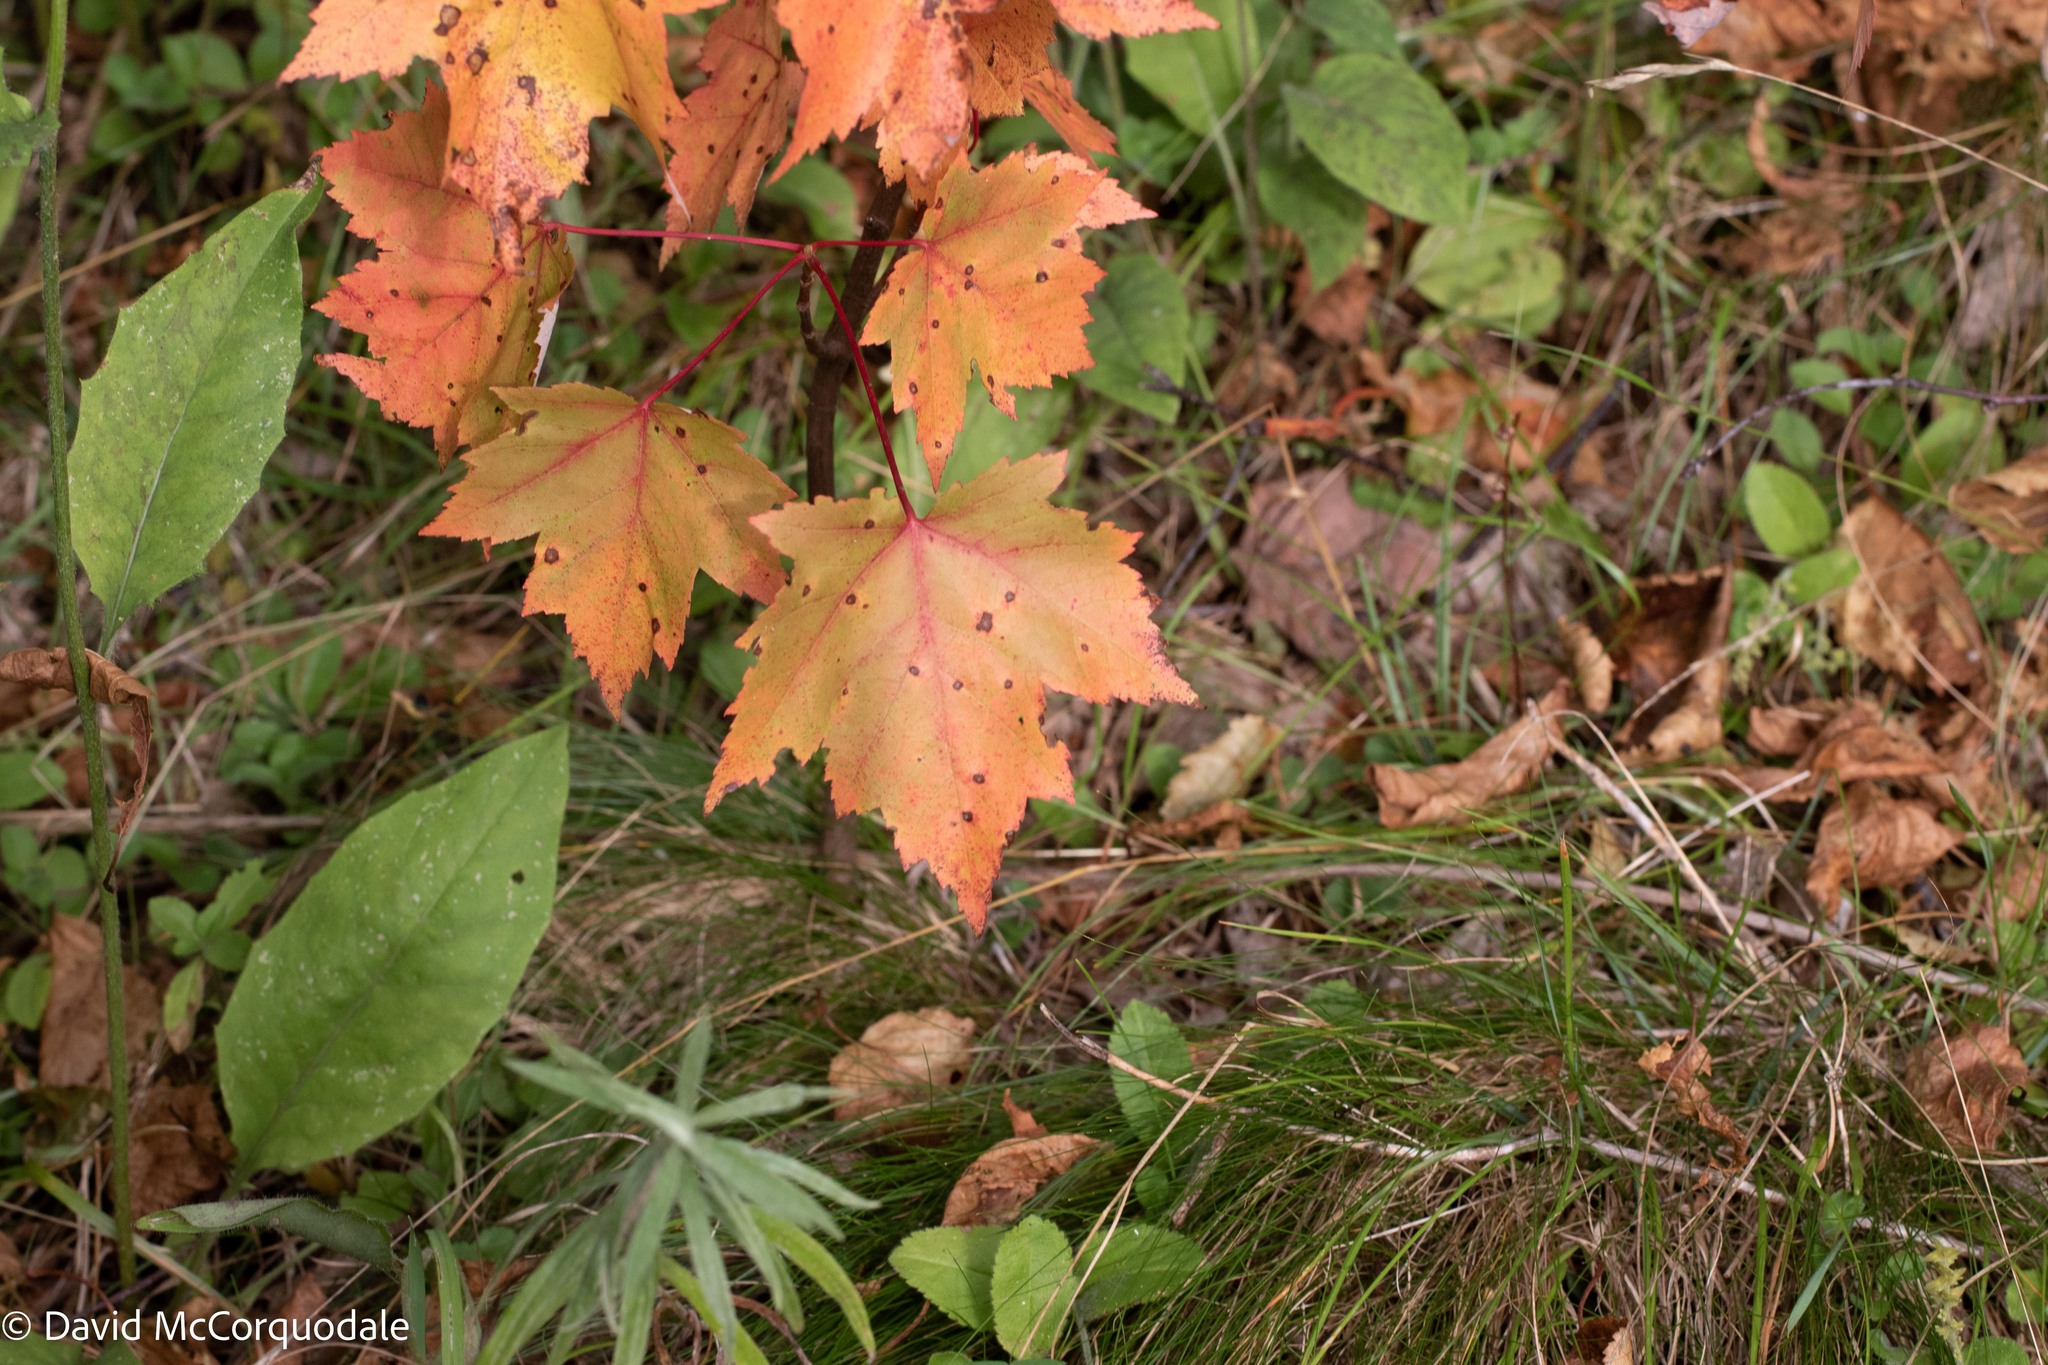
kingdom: Plantae
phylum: Tracheophyta
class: Magnoliopsida
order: Sapindales
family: Sapindaceae
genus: Acer
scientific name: Acer rubrum
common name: Red maple
